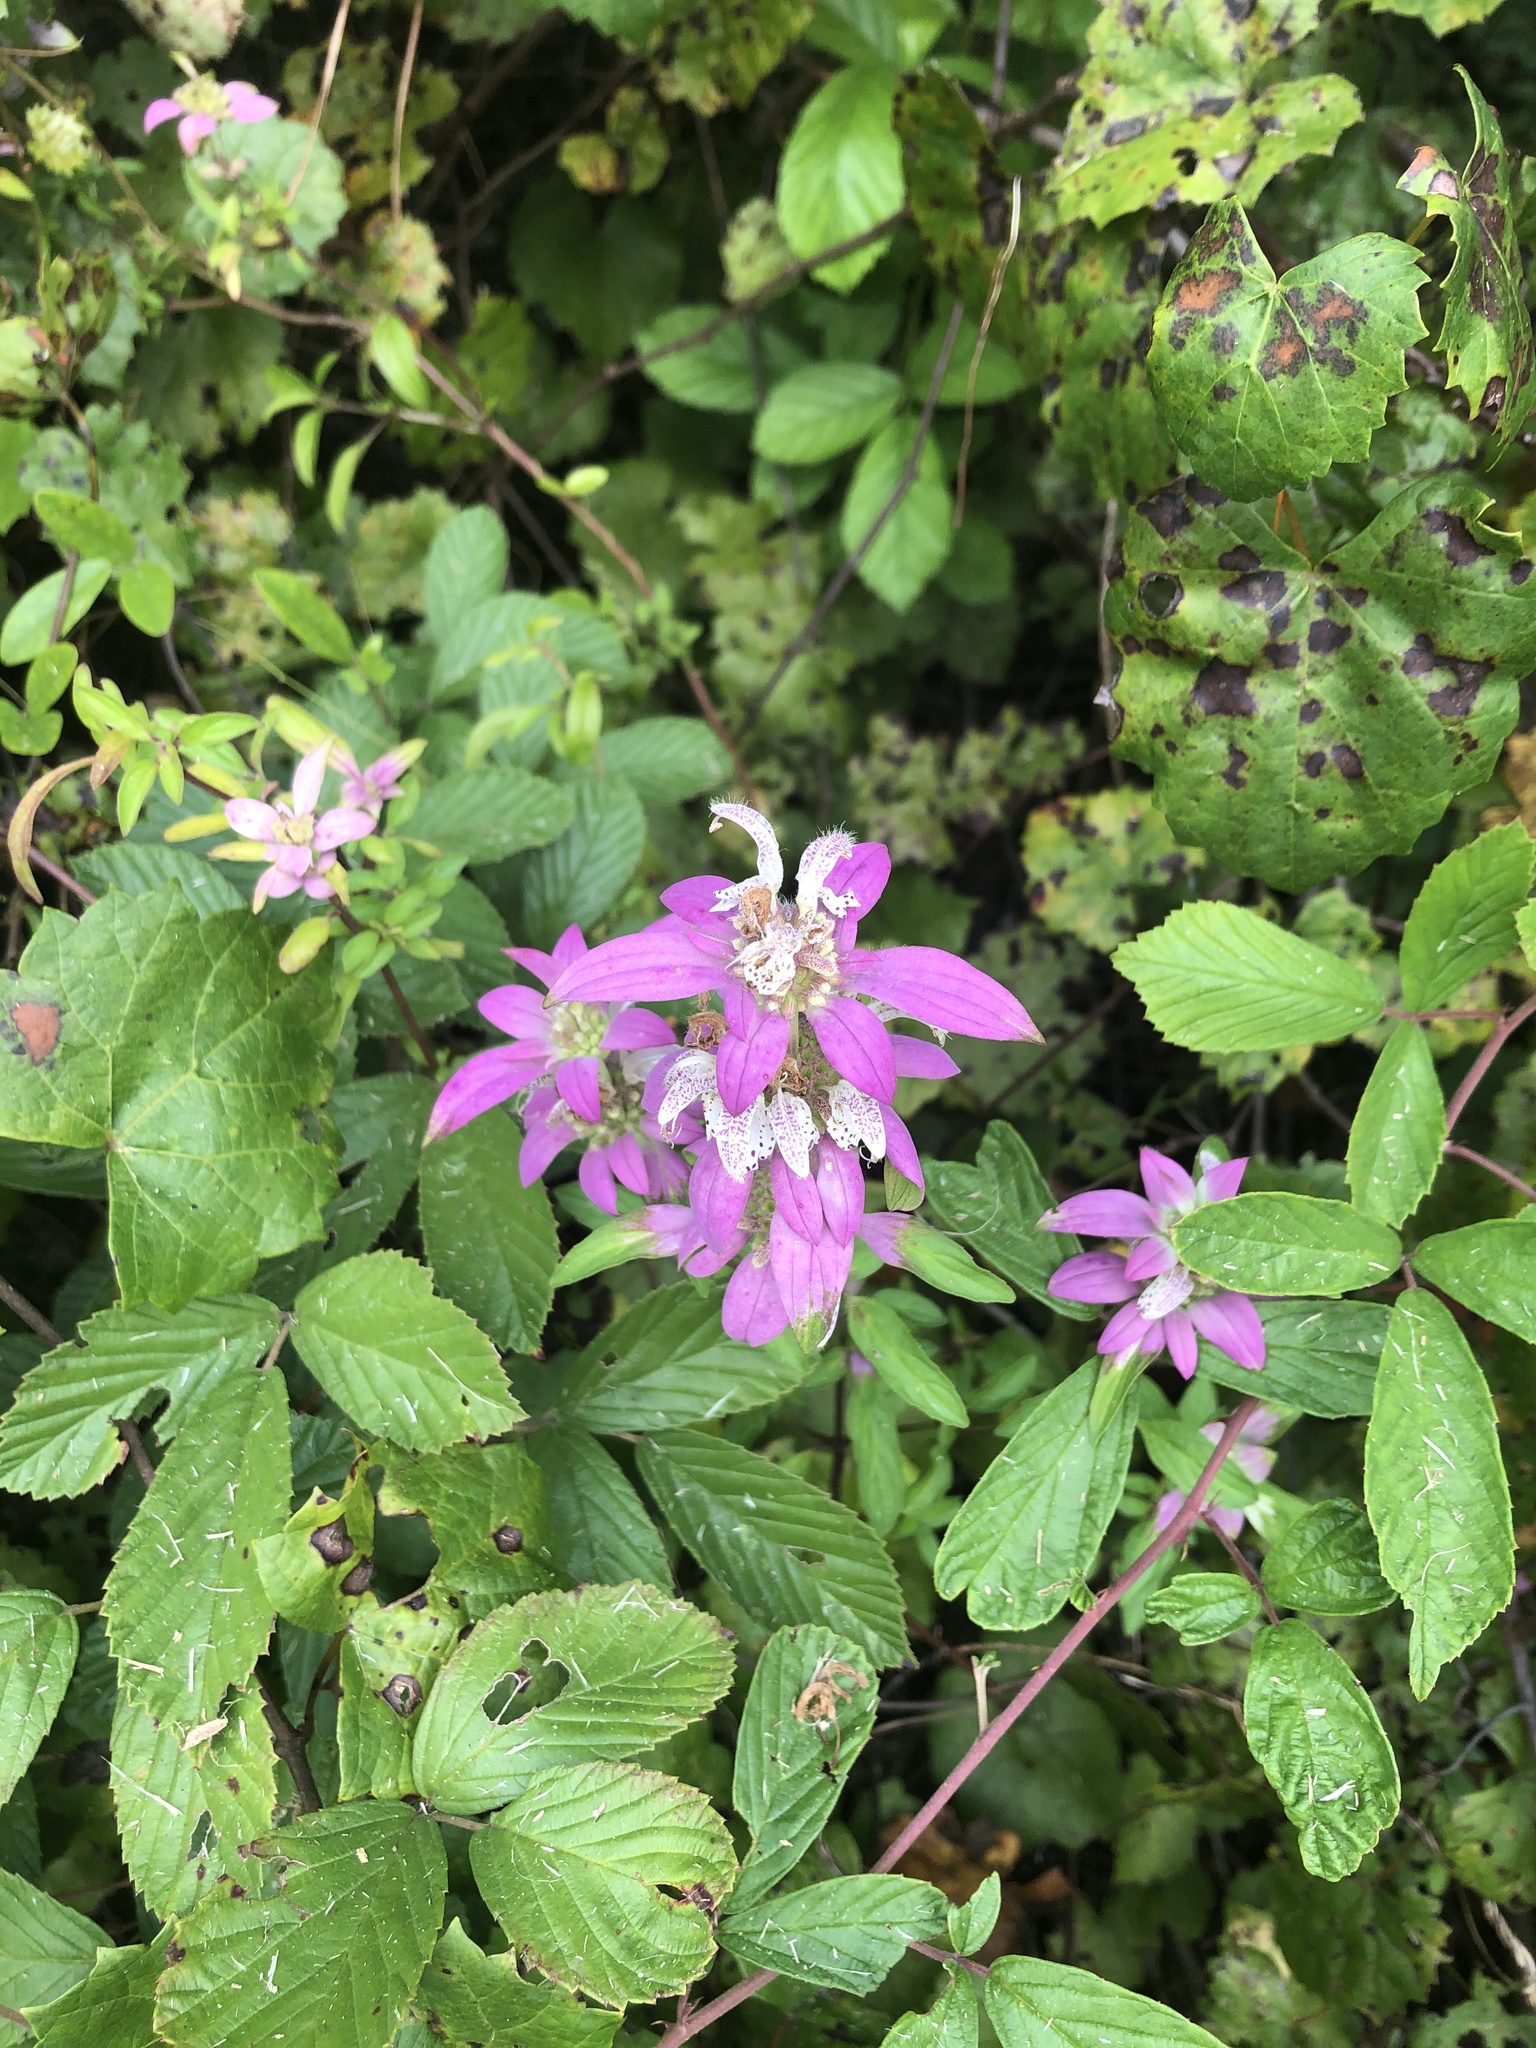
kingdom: Plantae
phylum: Tracheophyta
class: Magnoliopsida
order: Lamiales
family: Lamiaceae
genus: Monarda
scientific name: Monarda punctata
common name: Dotted monarda
